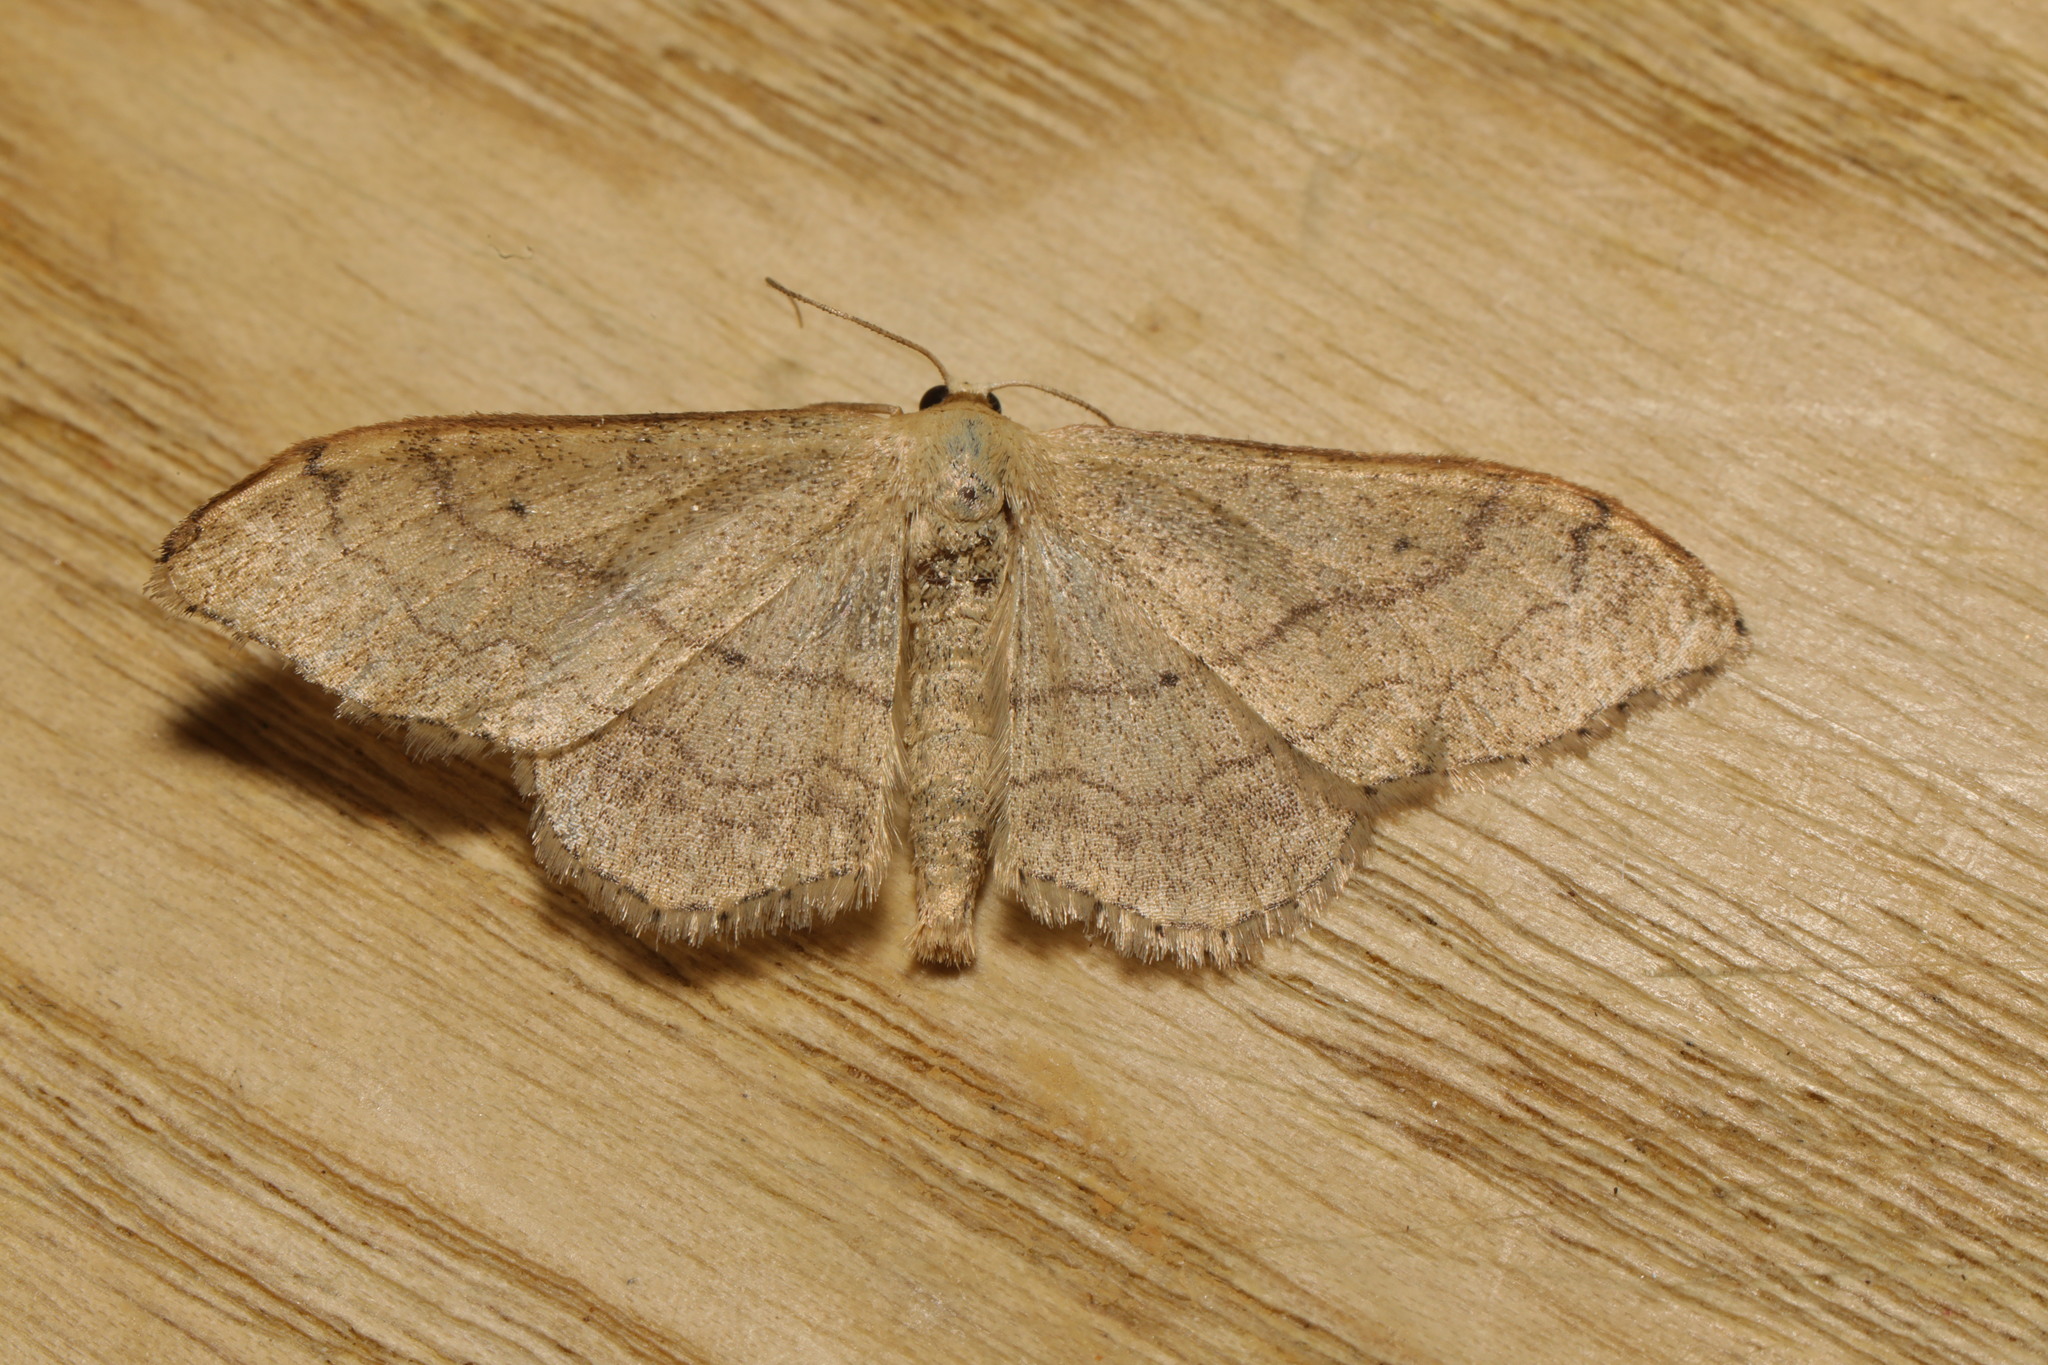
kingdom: Animalia
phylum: Arthropoda
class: Insecta
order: Lepidoptera
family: Geometridae
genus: Idaea
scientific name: Idaea aversata
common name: Riband wave
